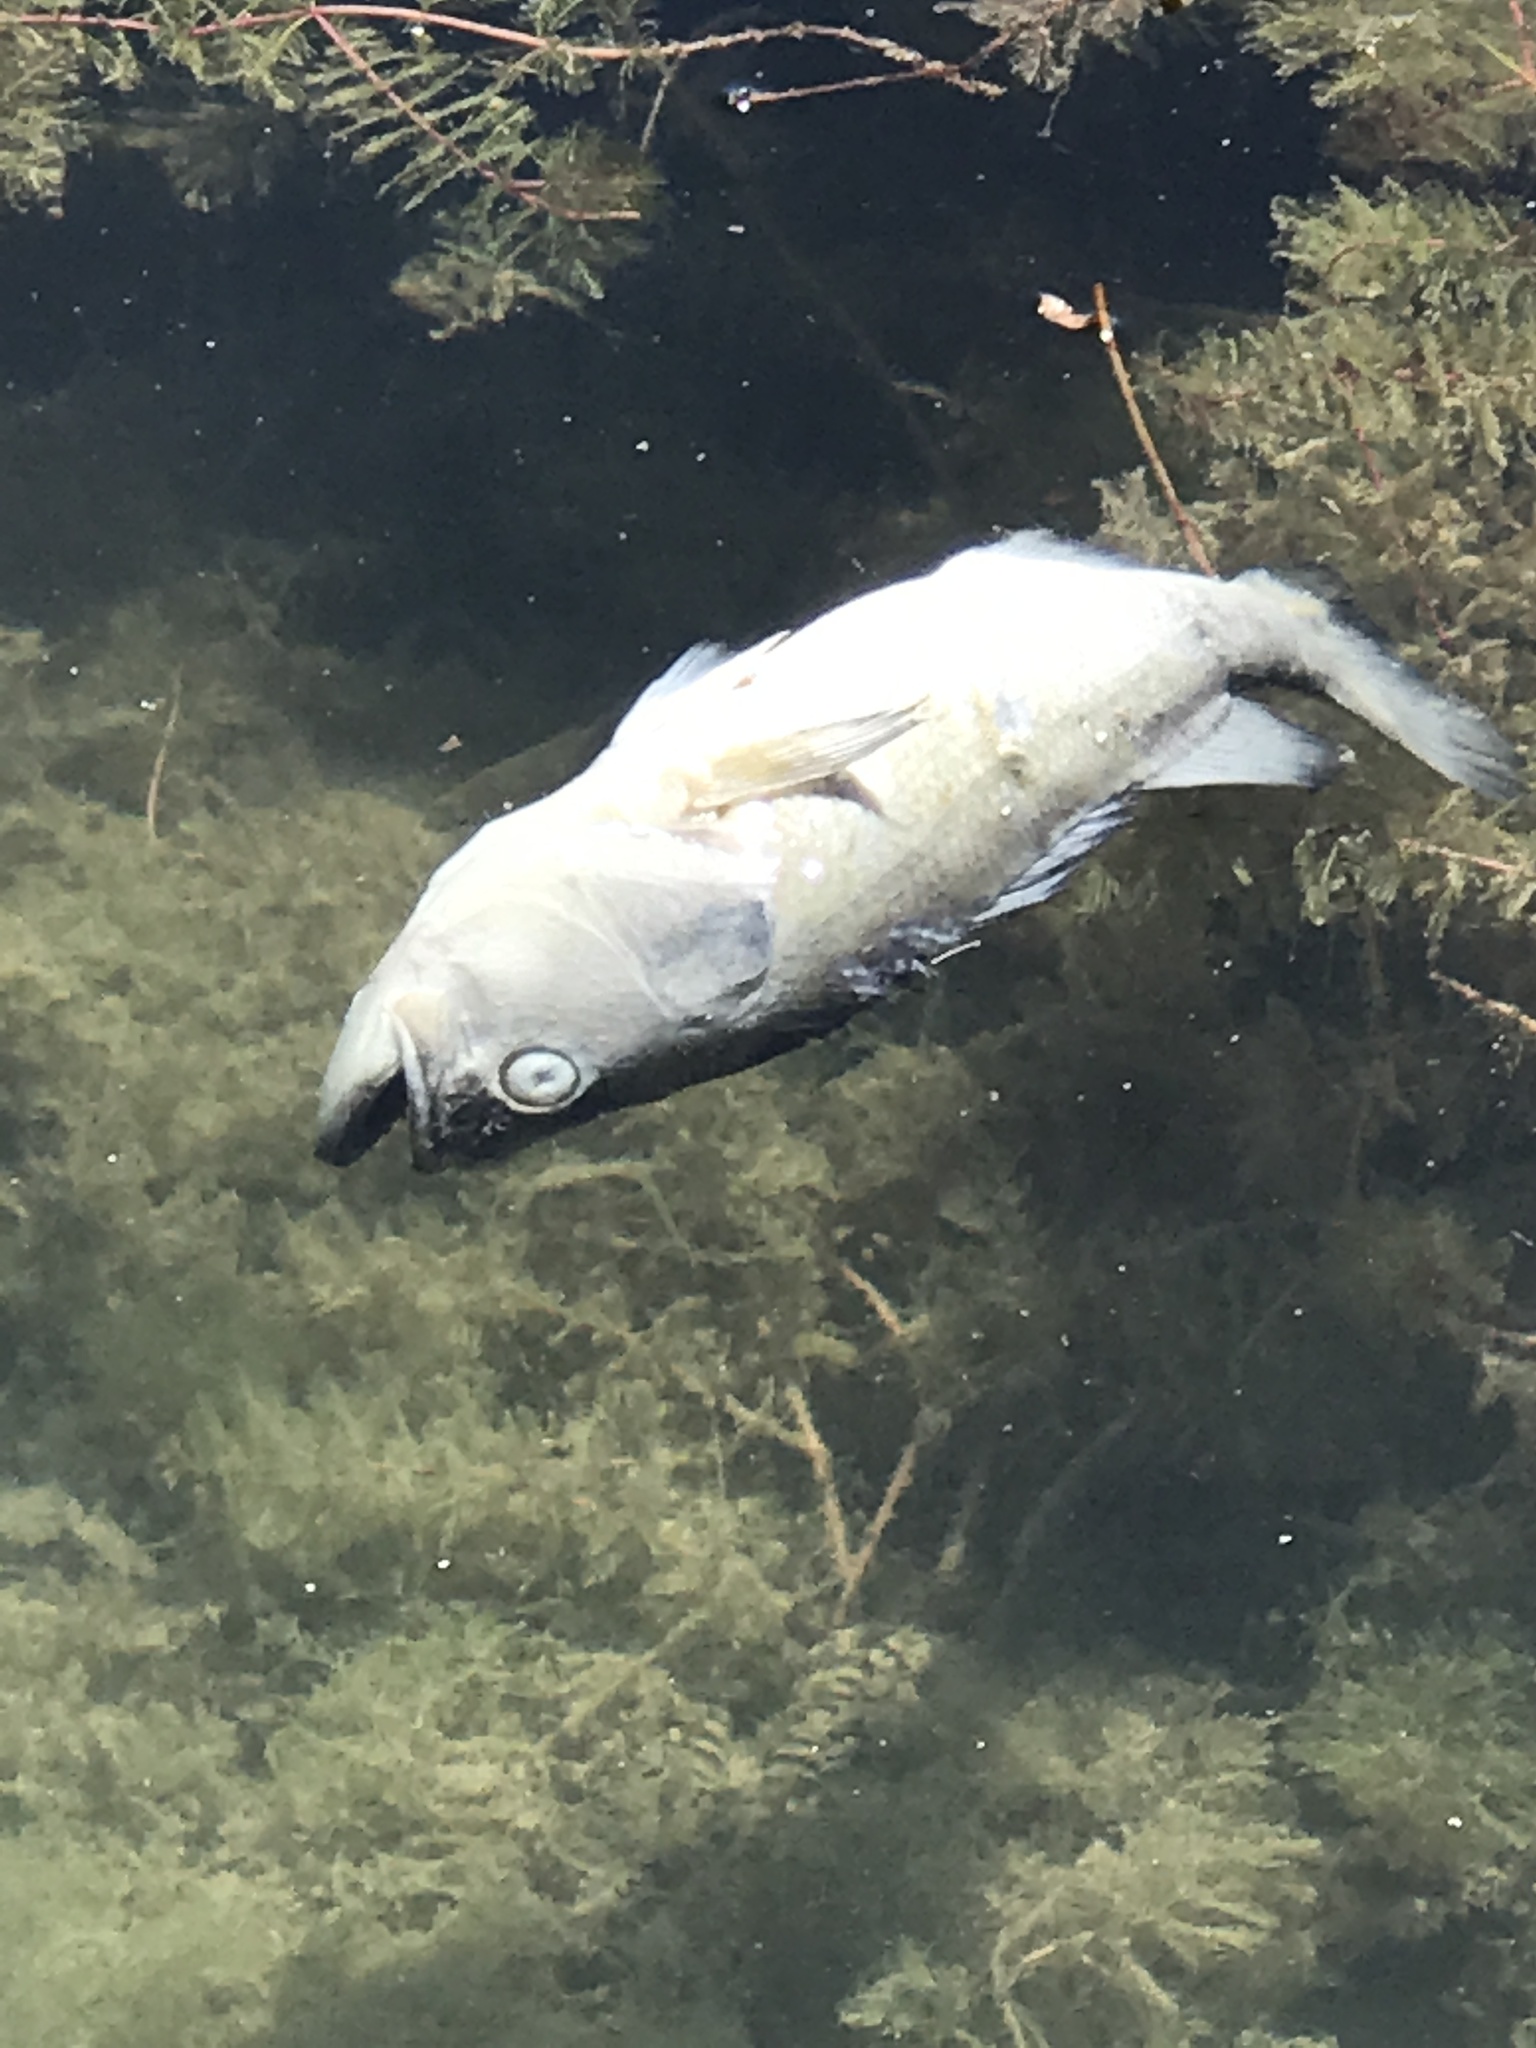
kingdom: Animalia
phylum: Chordata
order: Perciformes
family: Centrarchidae
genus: Micropterus
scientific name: Micropterus
